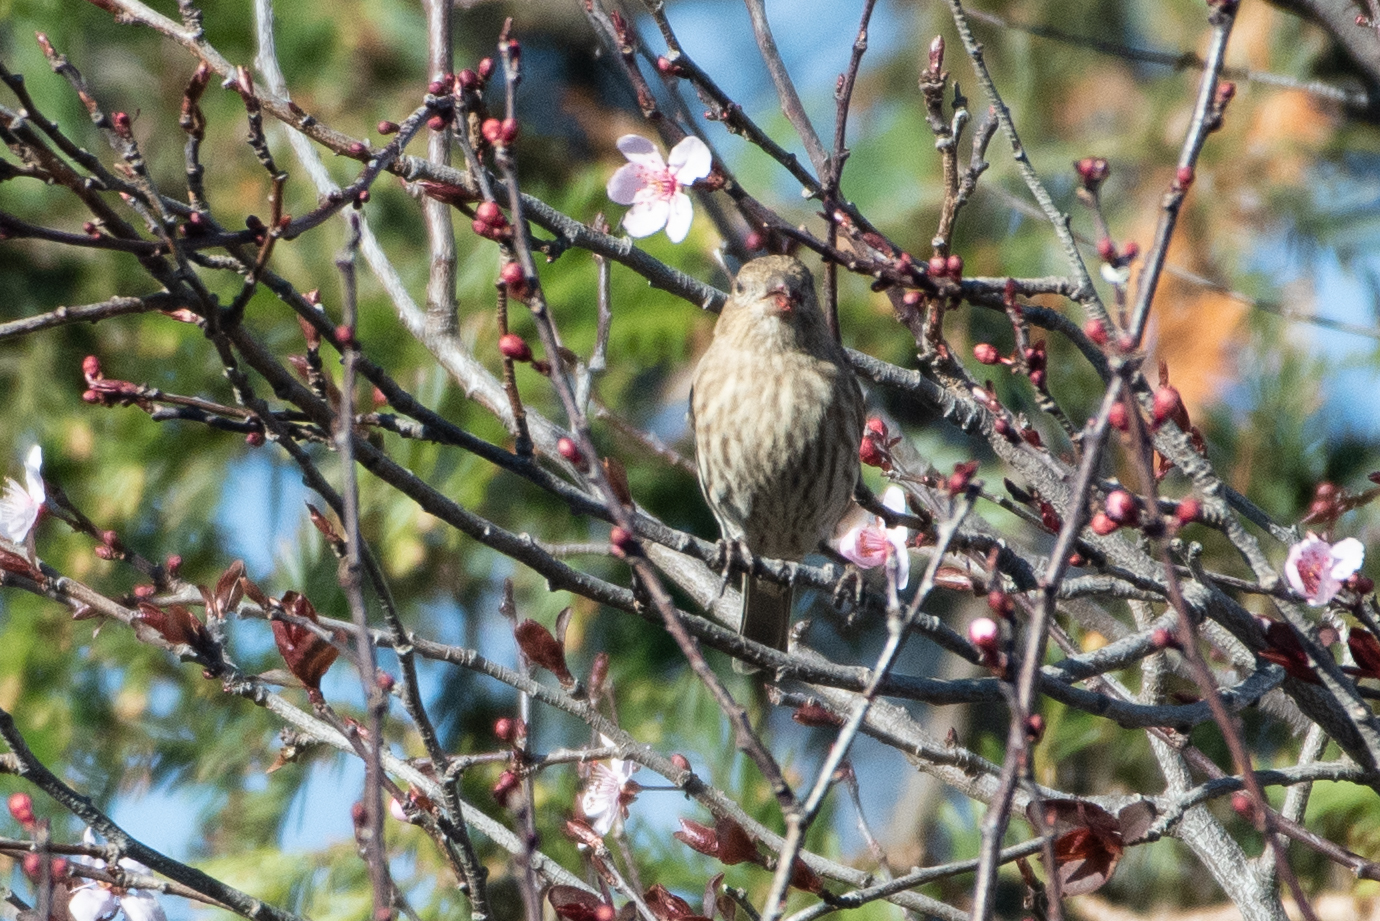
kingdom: Animalia
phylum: Chordata
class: Aves
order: Passeriformes
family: Fringillidae
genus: Haemorhous
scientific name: Haemorhous mexicanus
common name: House finch
